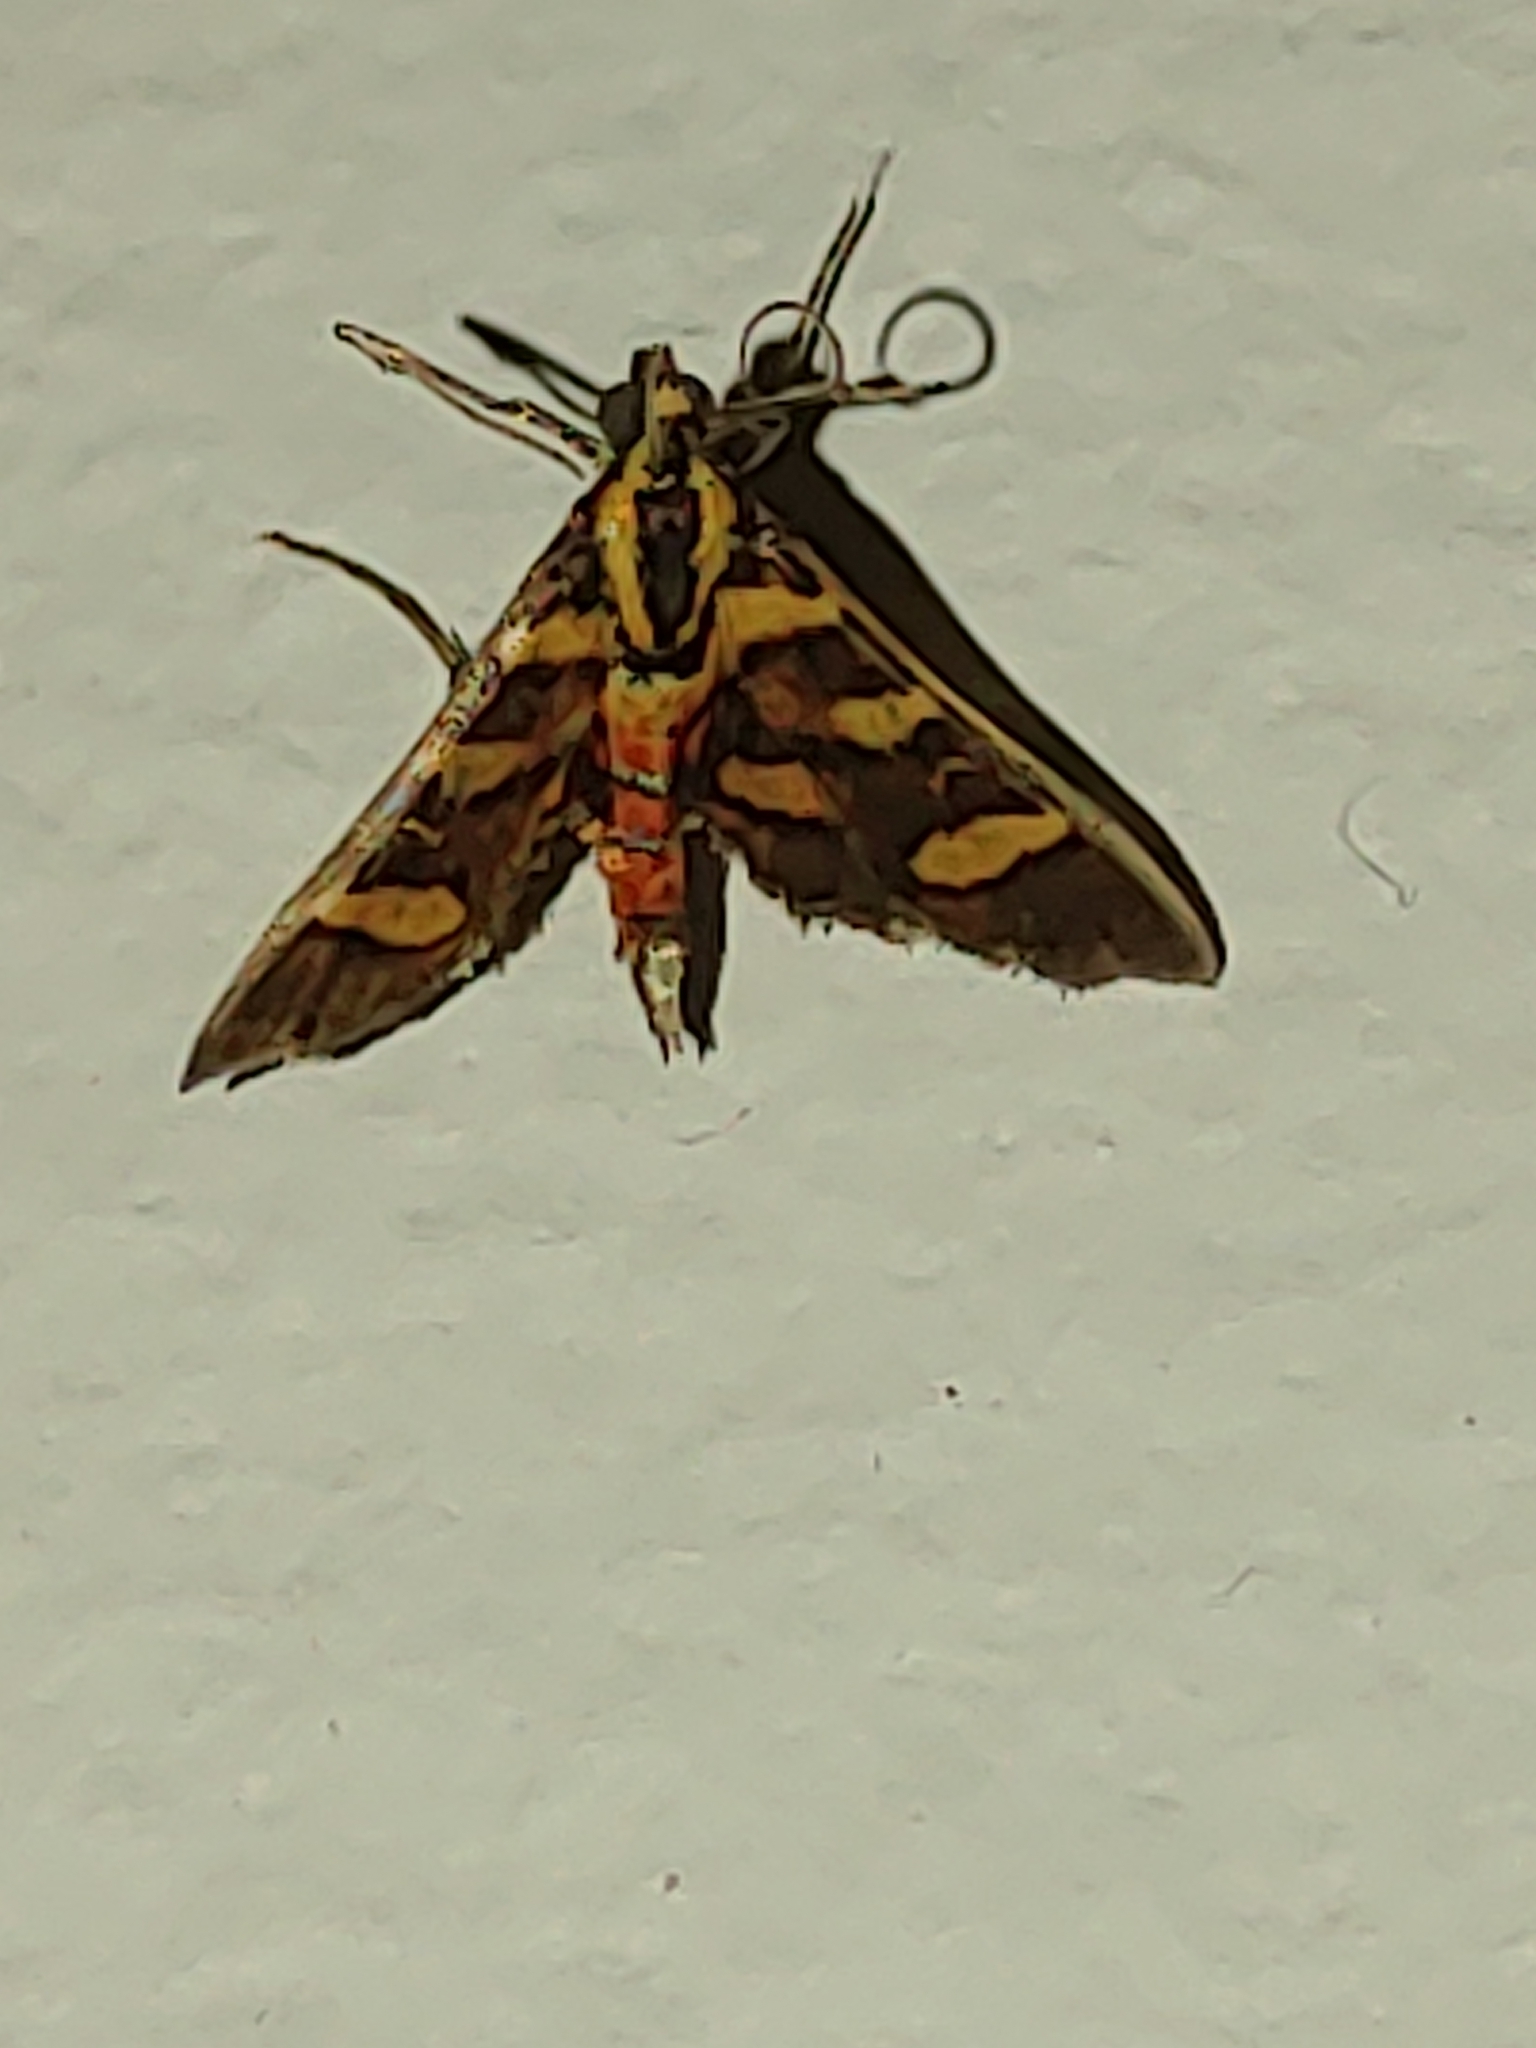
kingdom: Animalia
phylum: Arthropoda
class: Insecta
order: Lepidoptera
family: Crambidae
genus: Syngamia
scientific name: Syngamia florella
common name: Orange-spotted flower moth
